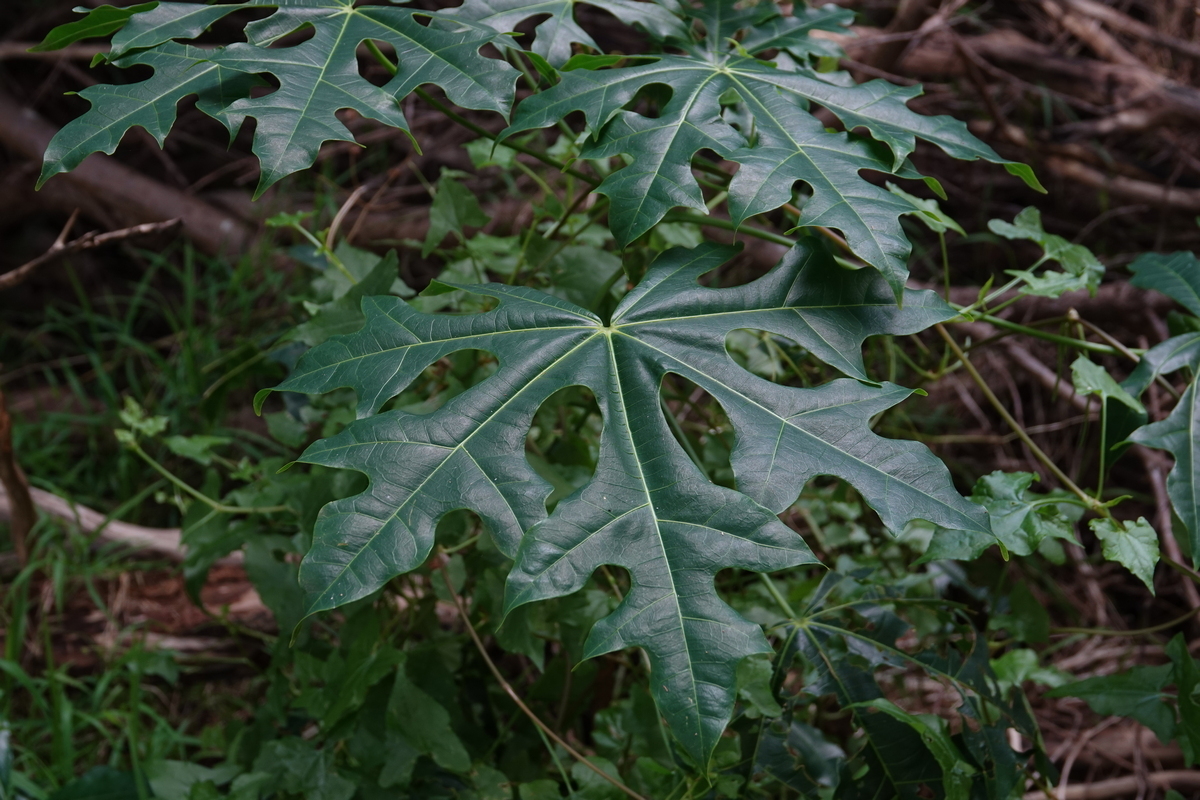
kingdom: Plantae
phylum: Tracheophyta
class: Magnoliopsida
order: Malvales
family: Malvaceae
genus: Brachychiton
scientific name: Brachychiton acerifolius
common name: Illawarra flame tree
